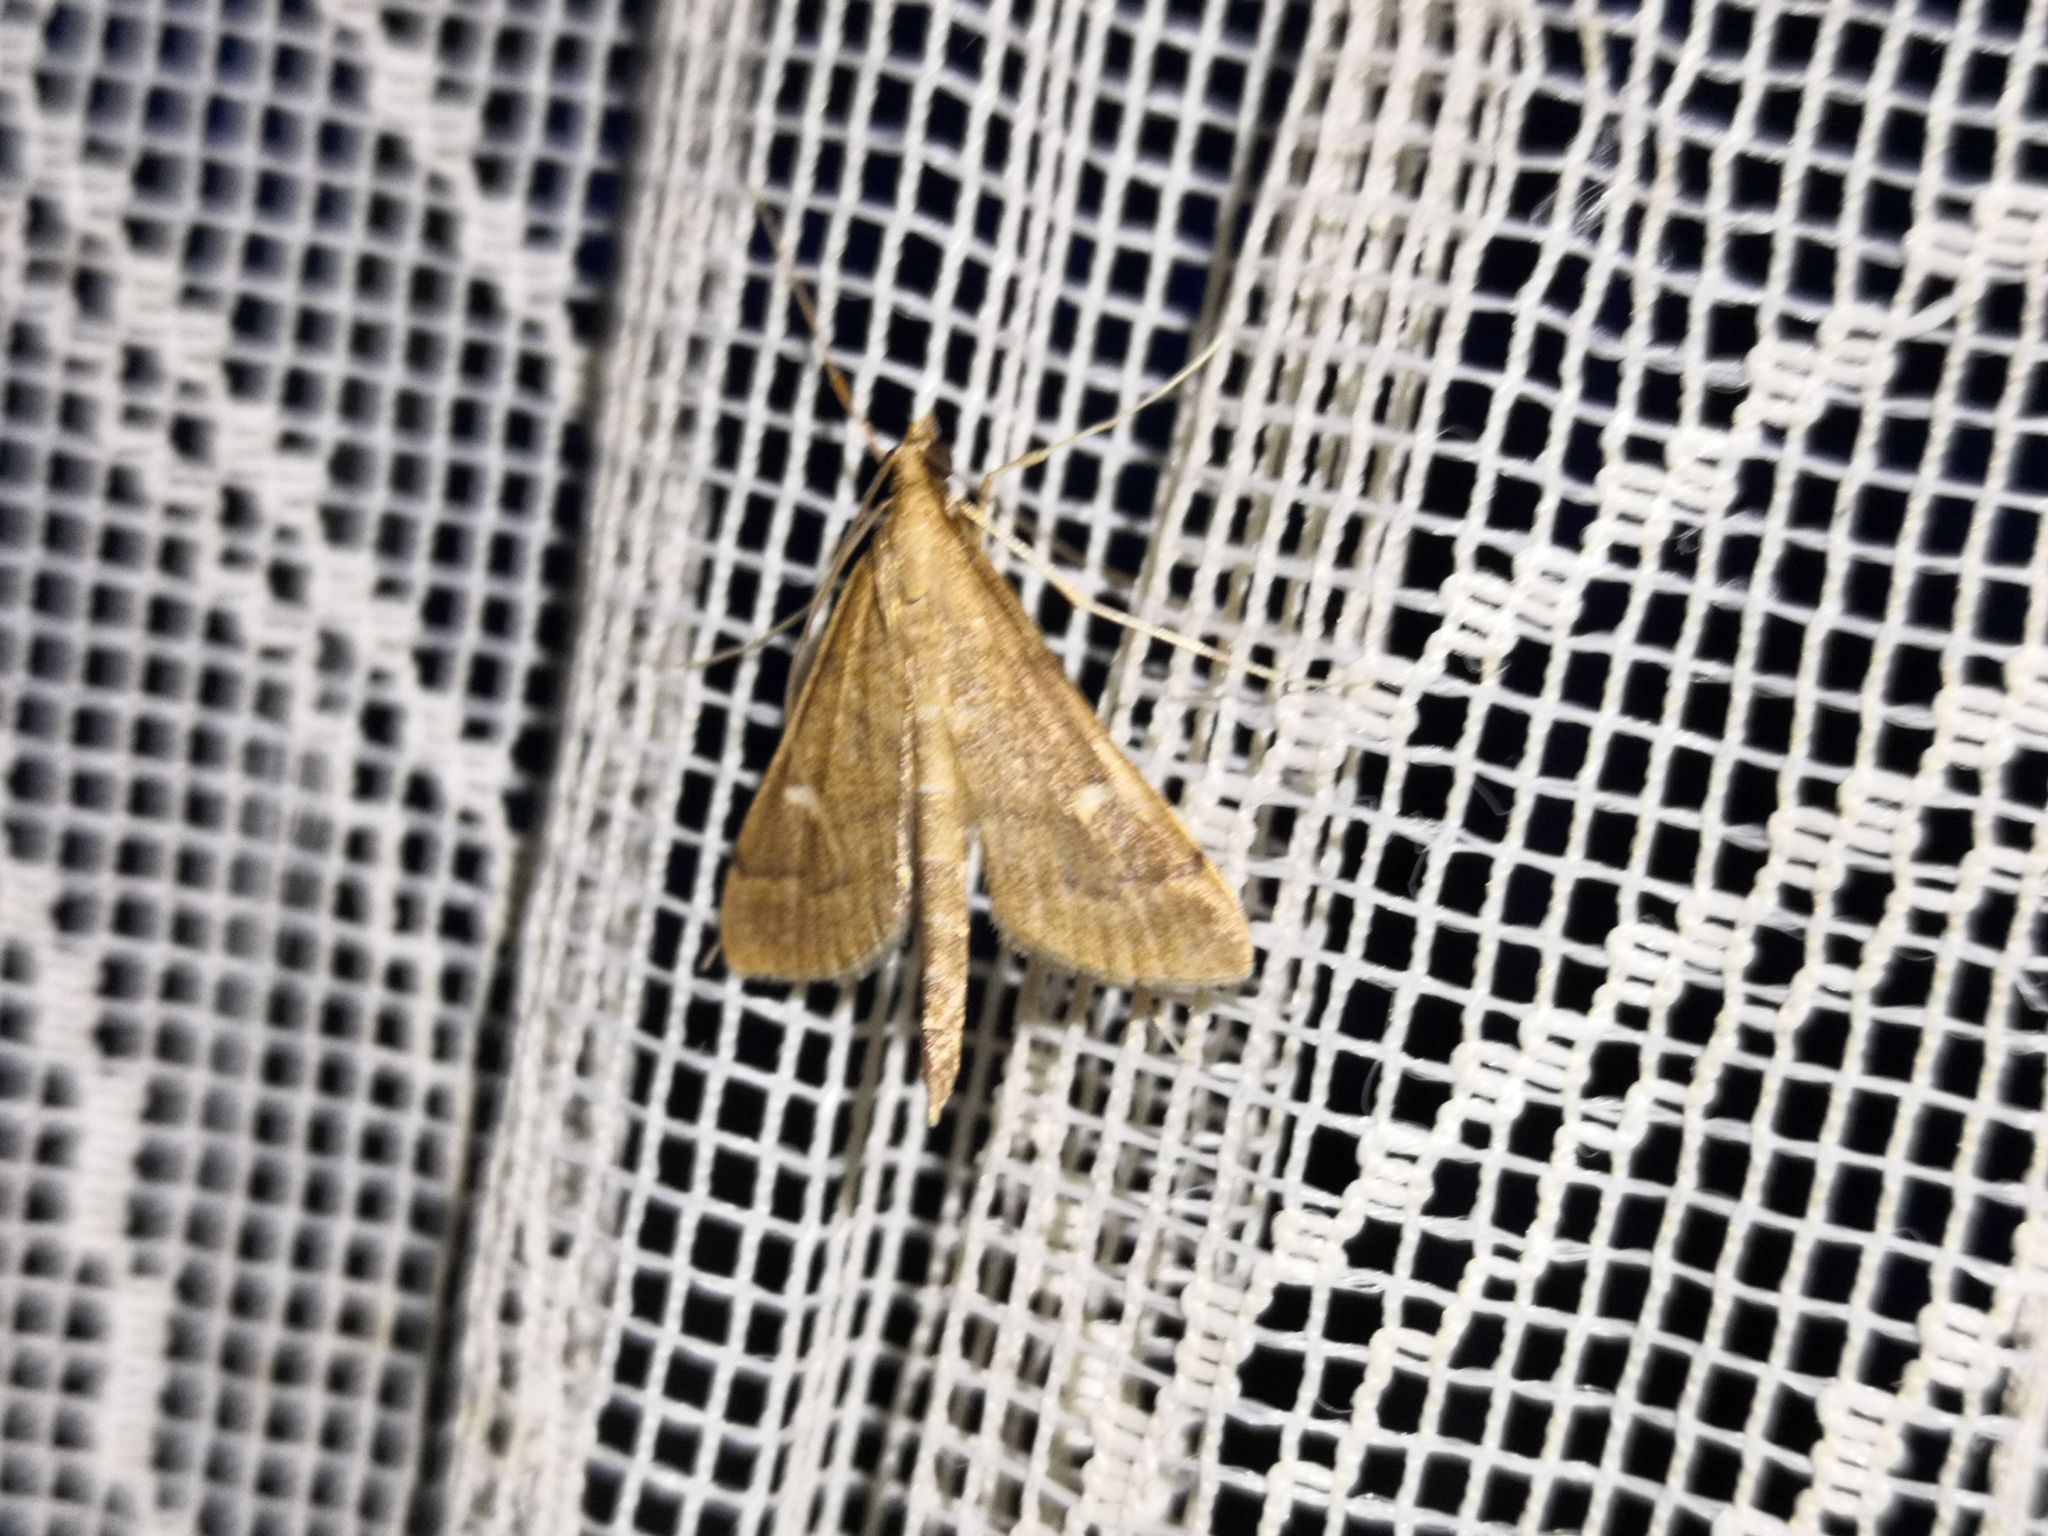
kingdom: Animalia
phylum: Arthropoda
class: Insecta
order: Lepidoptera
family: Crambidae
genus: Stenia
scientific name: Stenia Dolicharthria punctalis
